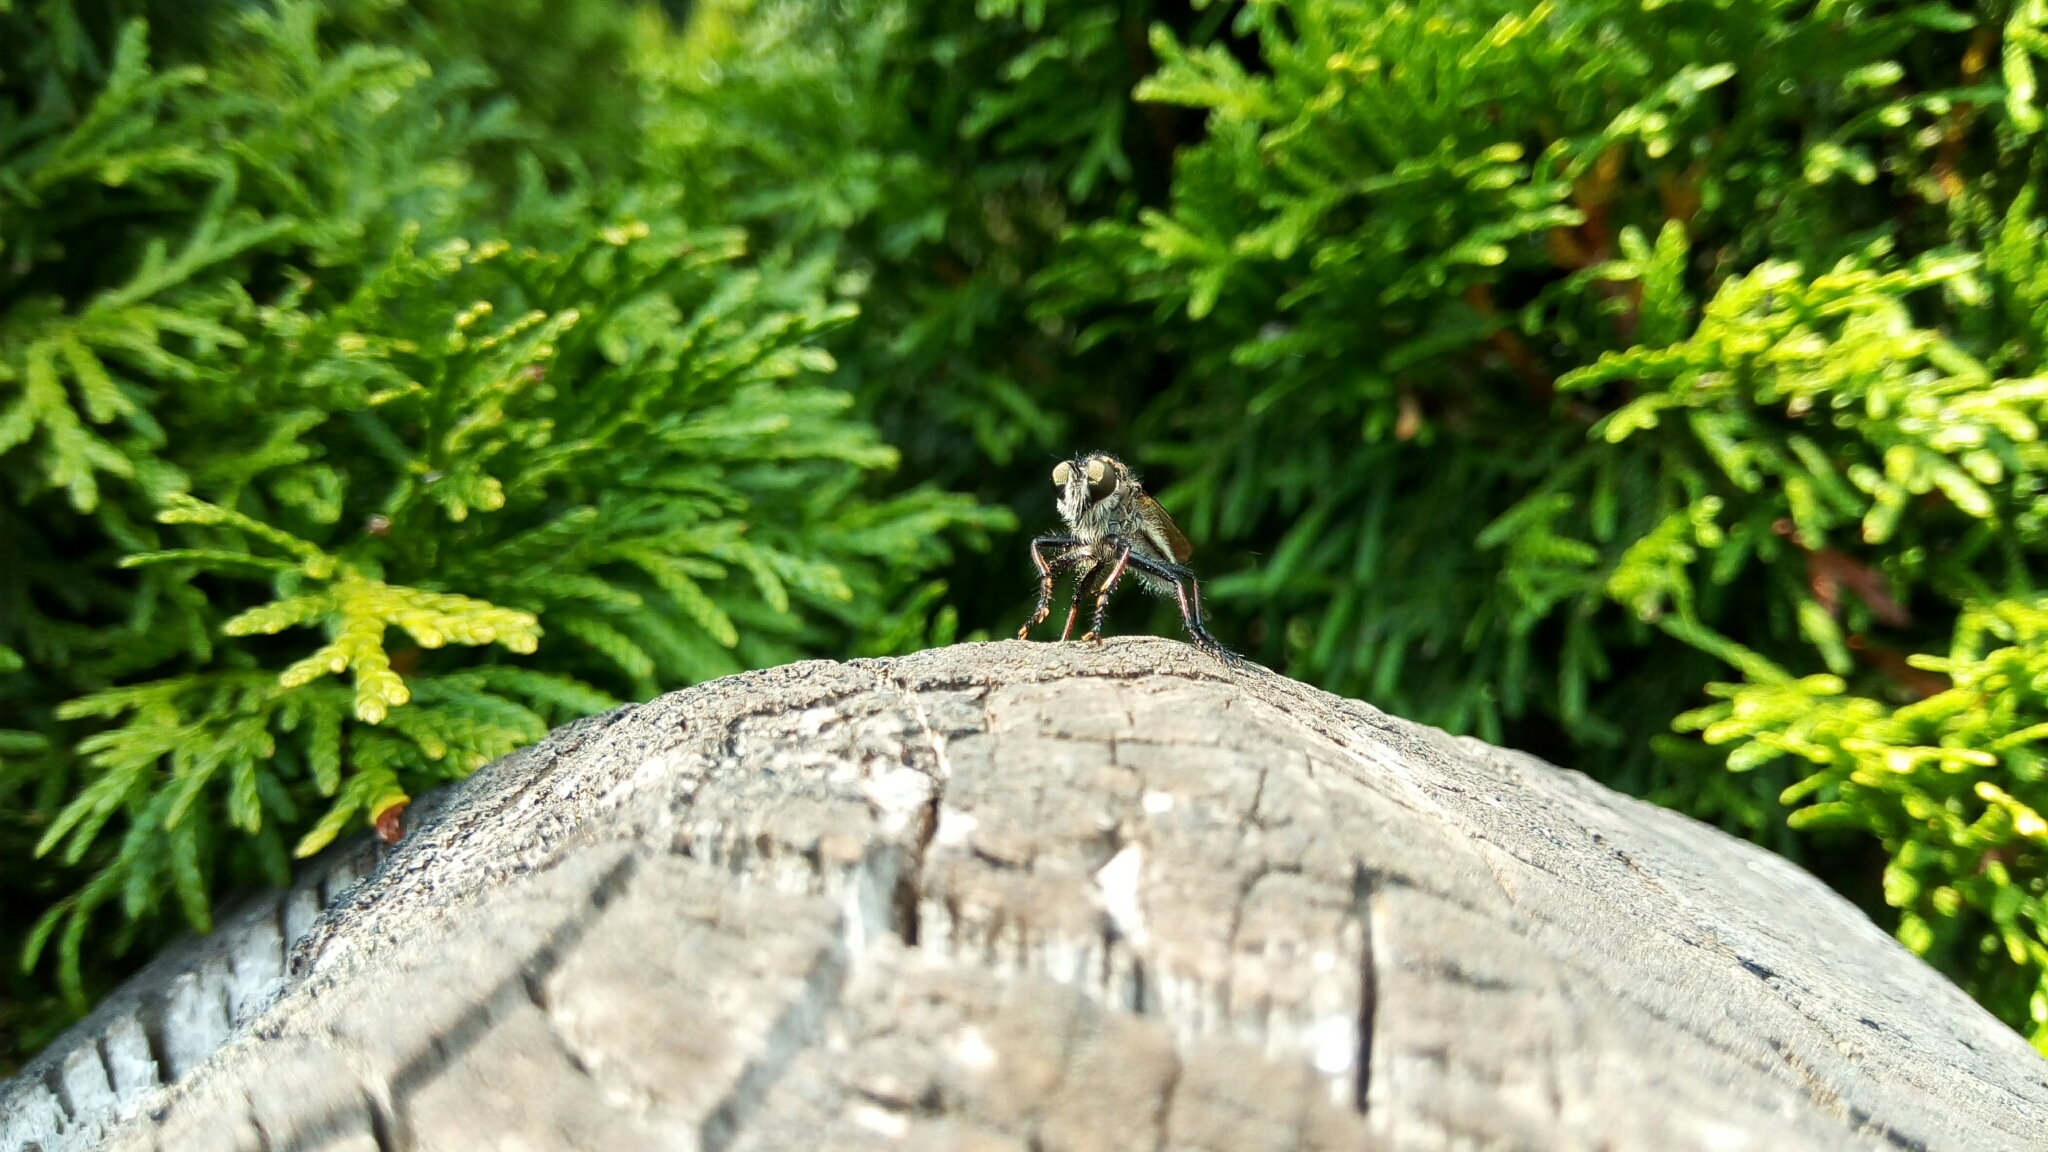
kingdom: Animalia
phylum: Arthropoda
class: Insecta
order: Diptera
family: Asilidae
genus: Efferia
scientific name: Efferia aestuans
